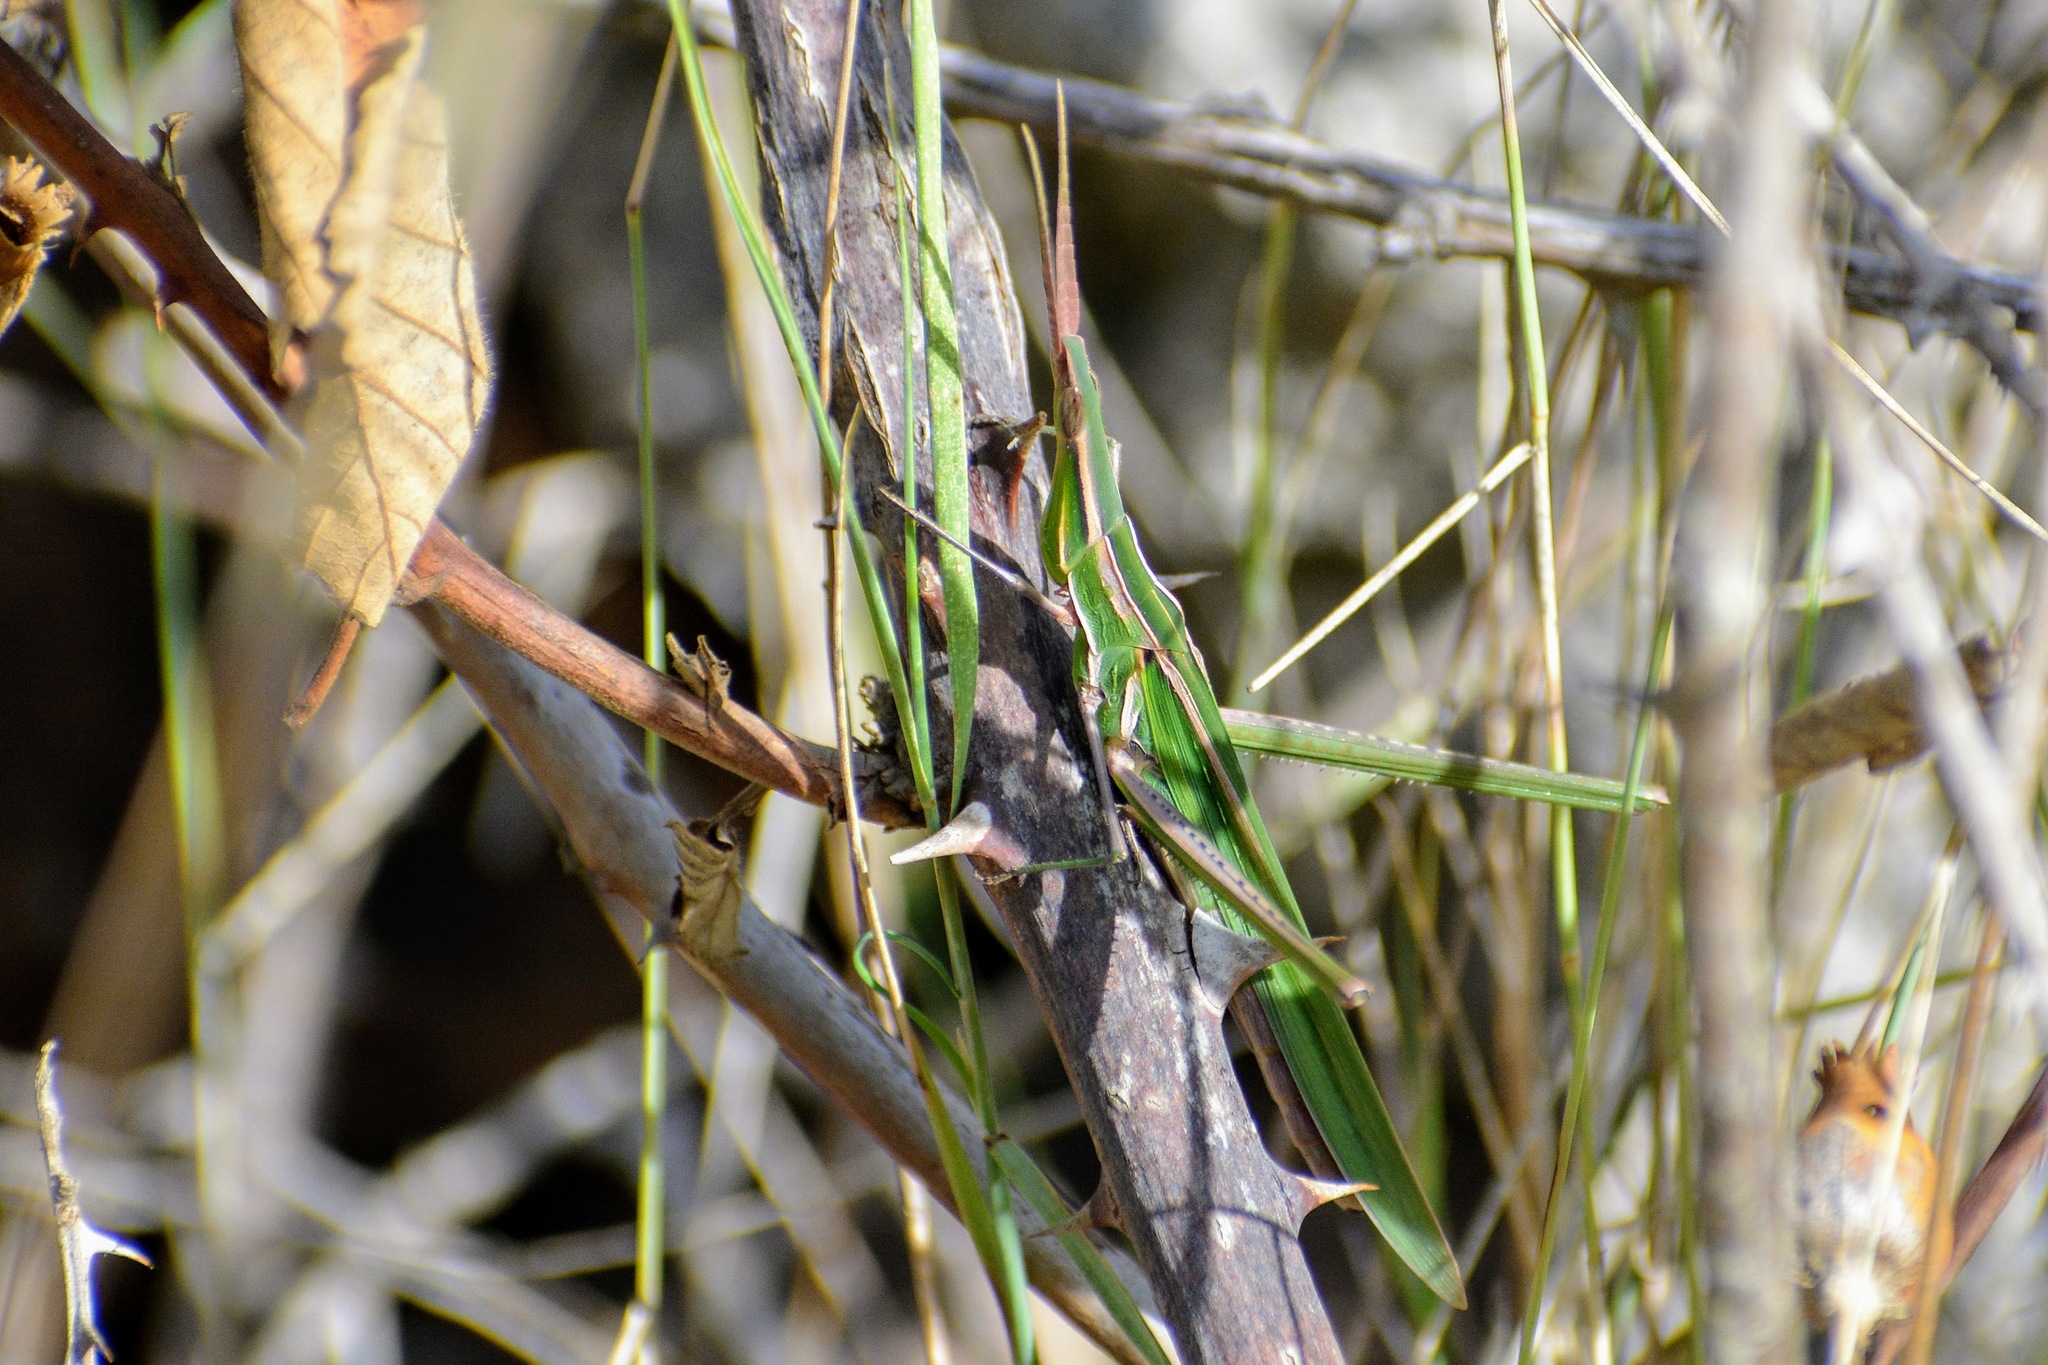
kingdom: Animalia
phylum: Arthropoda
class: Insecta
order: Orthoptera
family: Acrididae
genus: Acrida
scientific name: Acrida ungarica
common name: Common cone-headed grasshopper
